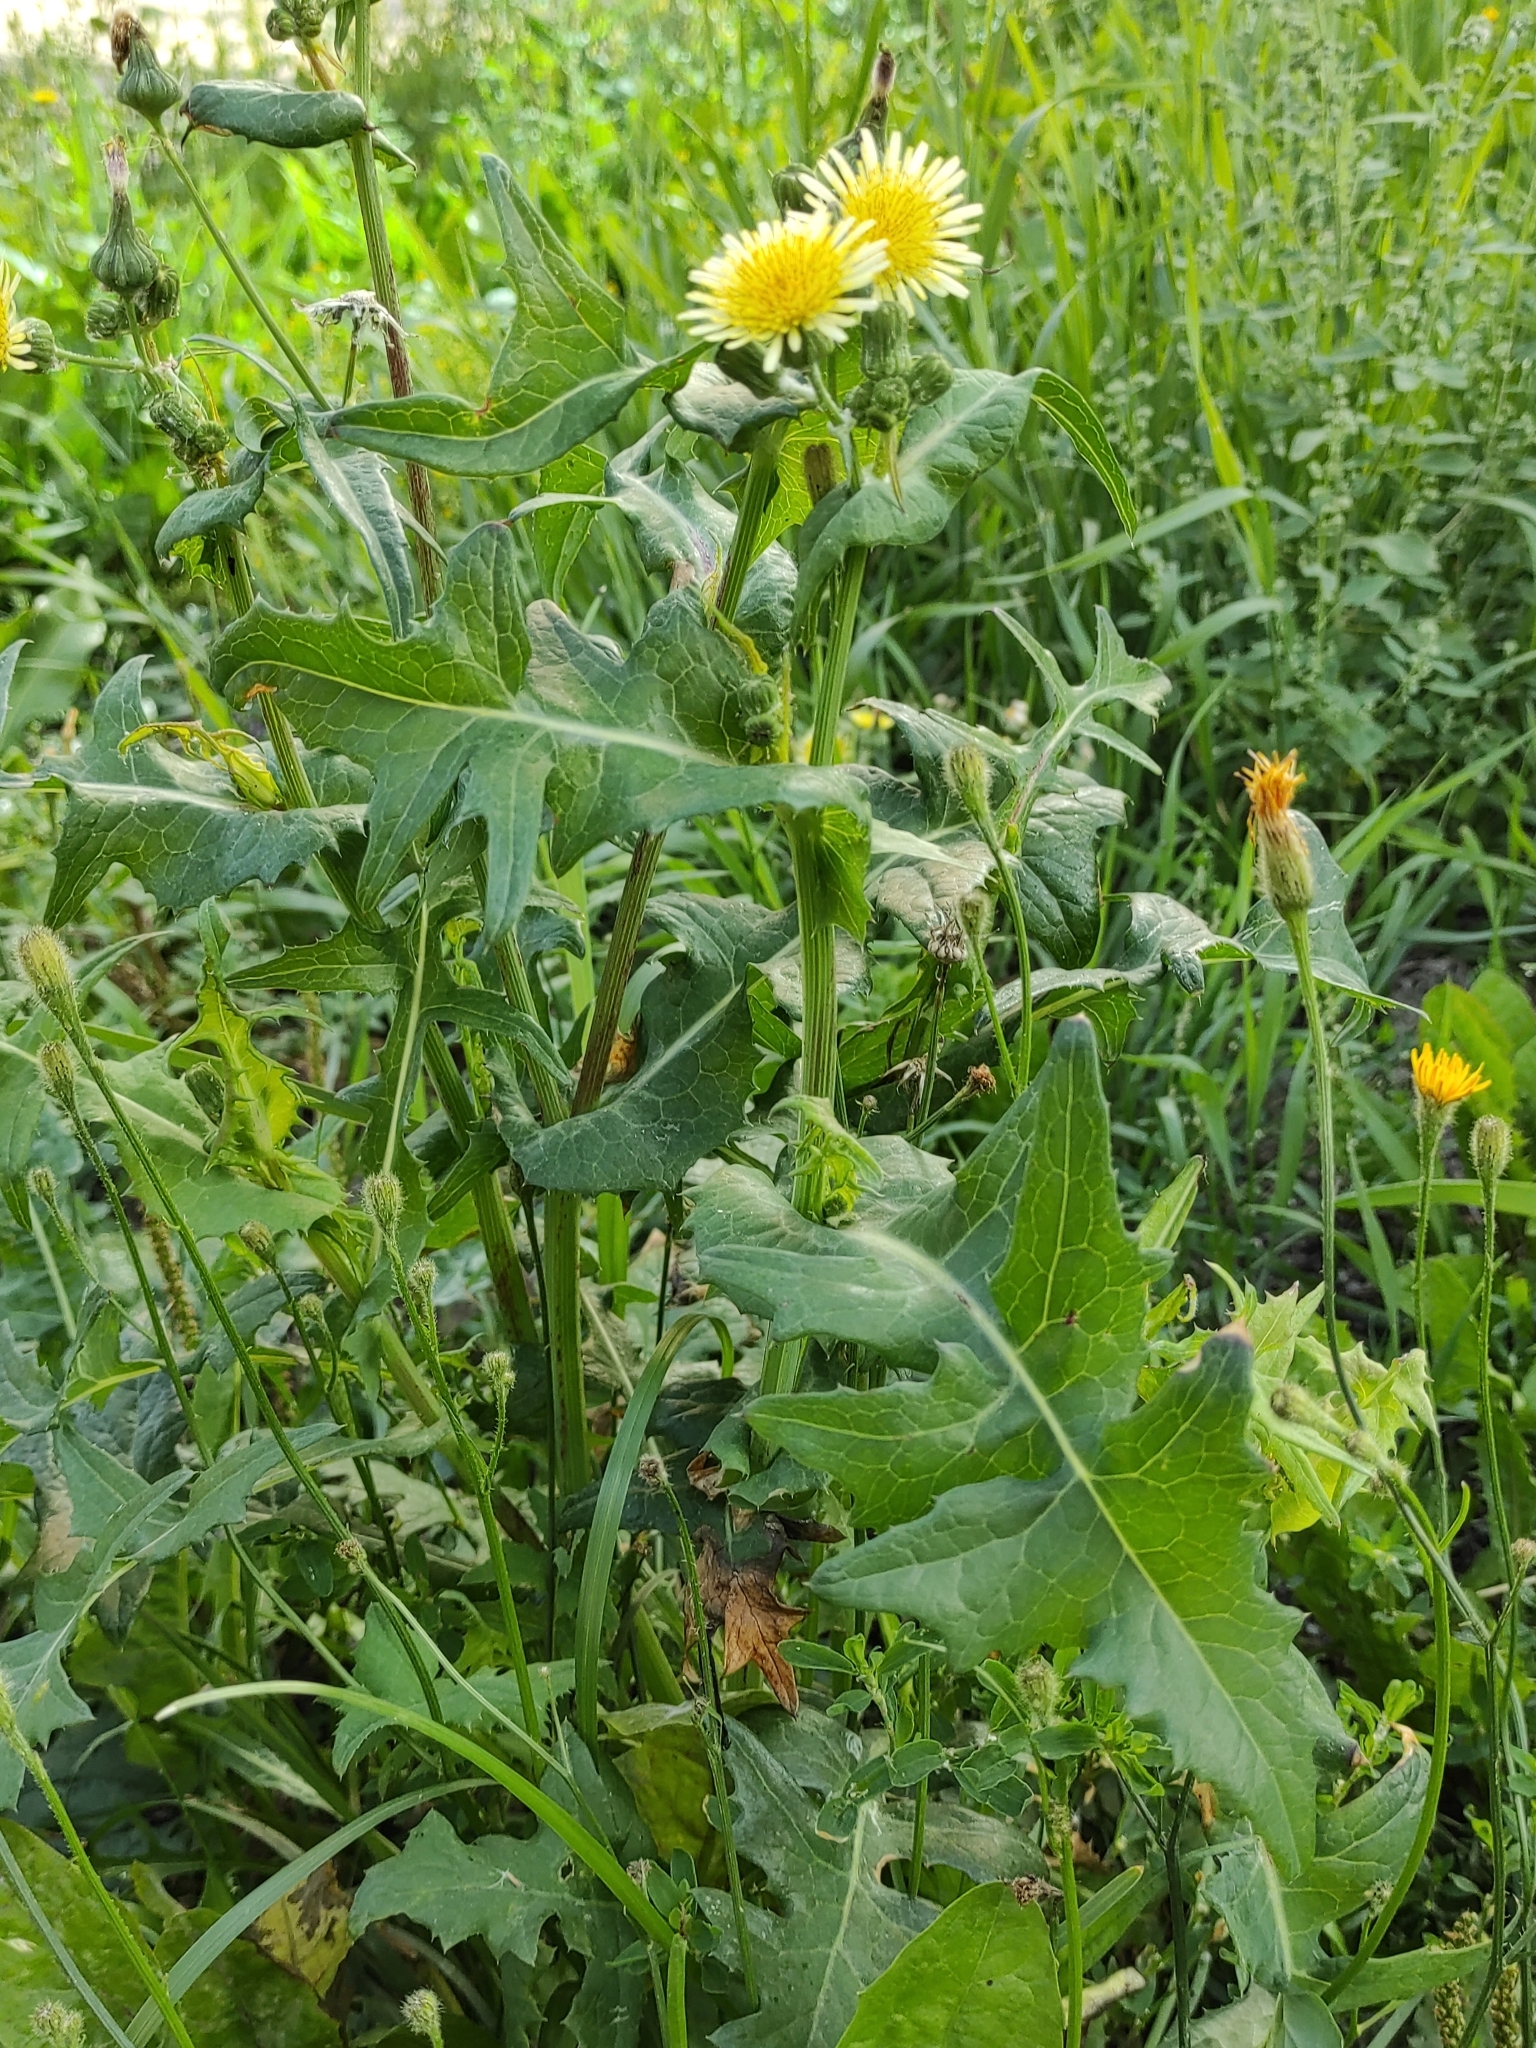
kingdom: Plantae
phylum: Tracheophyta
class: Magnoliopsida
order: Asterales
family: Asteraceae
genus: Sonchus
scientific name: Sonchus oleraceus
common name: Common sowthistle
